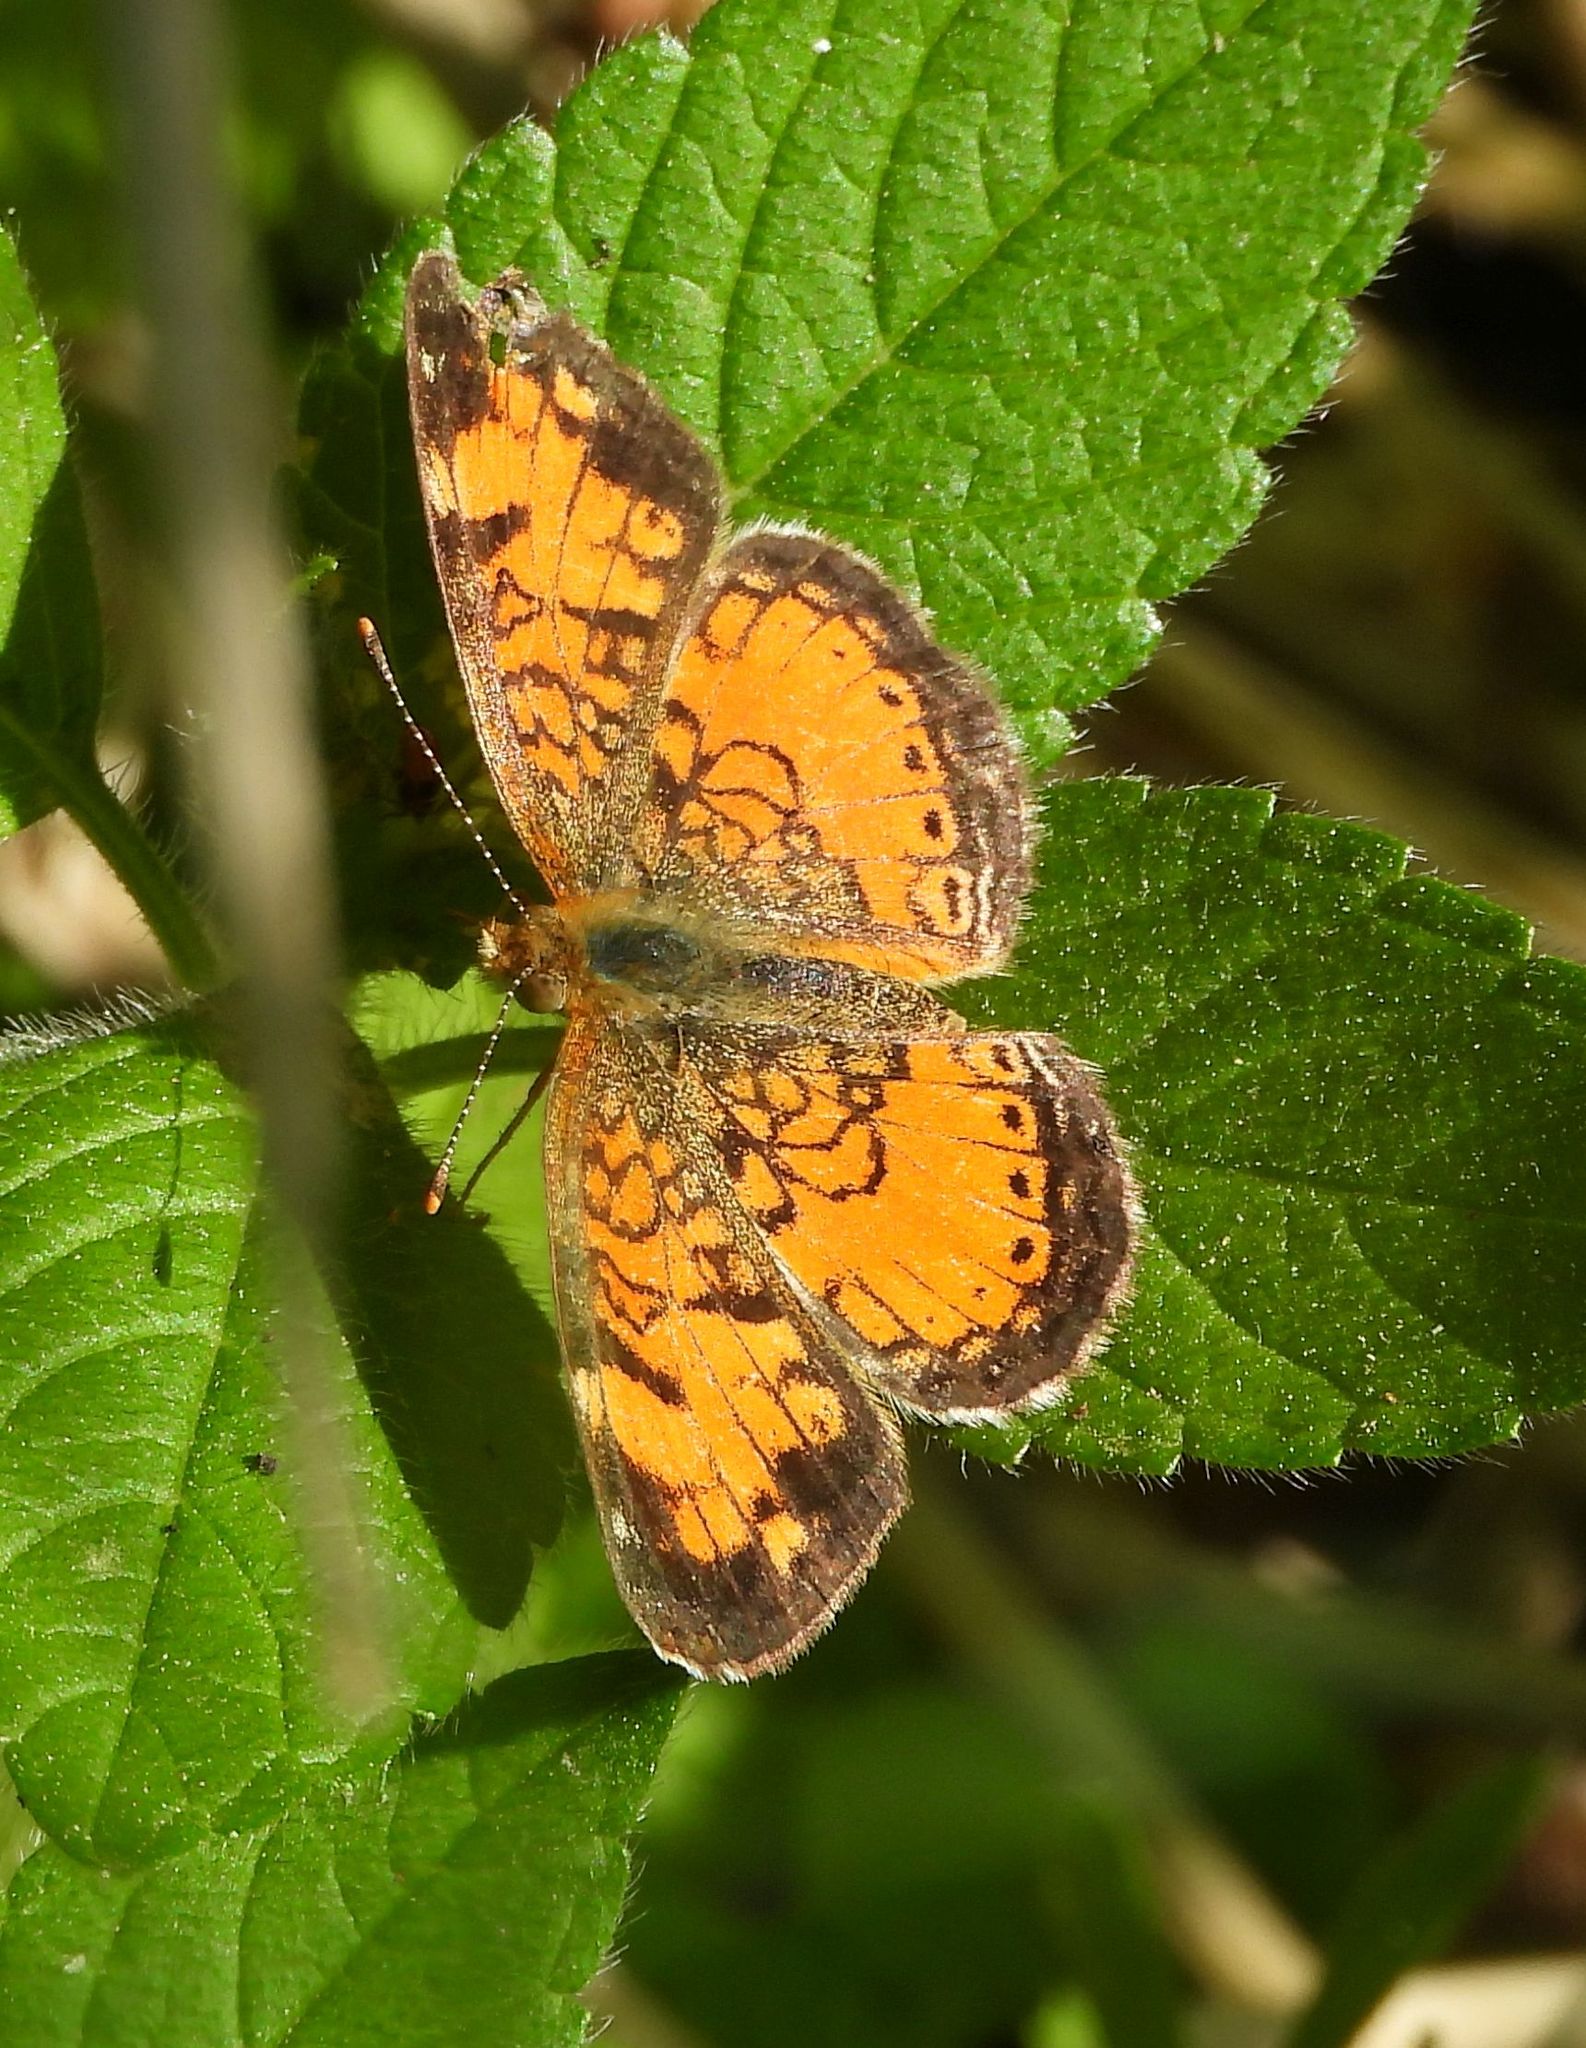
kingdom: Animalia
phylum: Arthropoda
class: Insecta
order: Lepidoptera
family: Nymphalidae
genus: Phyciodes
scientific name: Phyciodes tharos
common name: Pearl crescent
